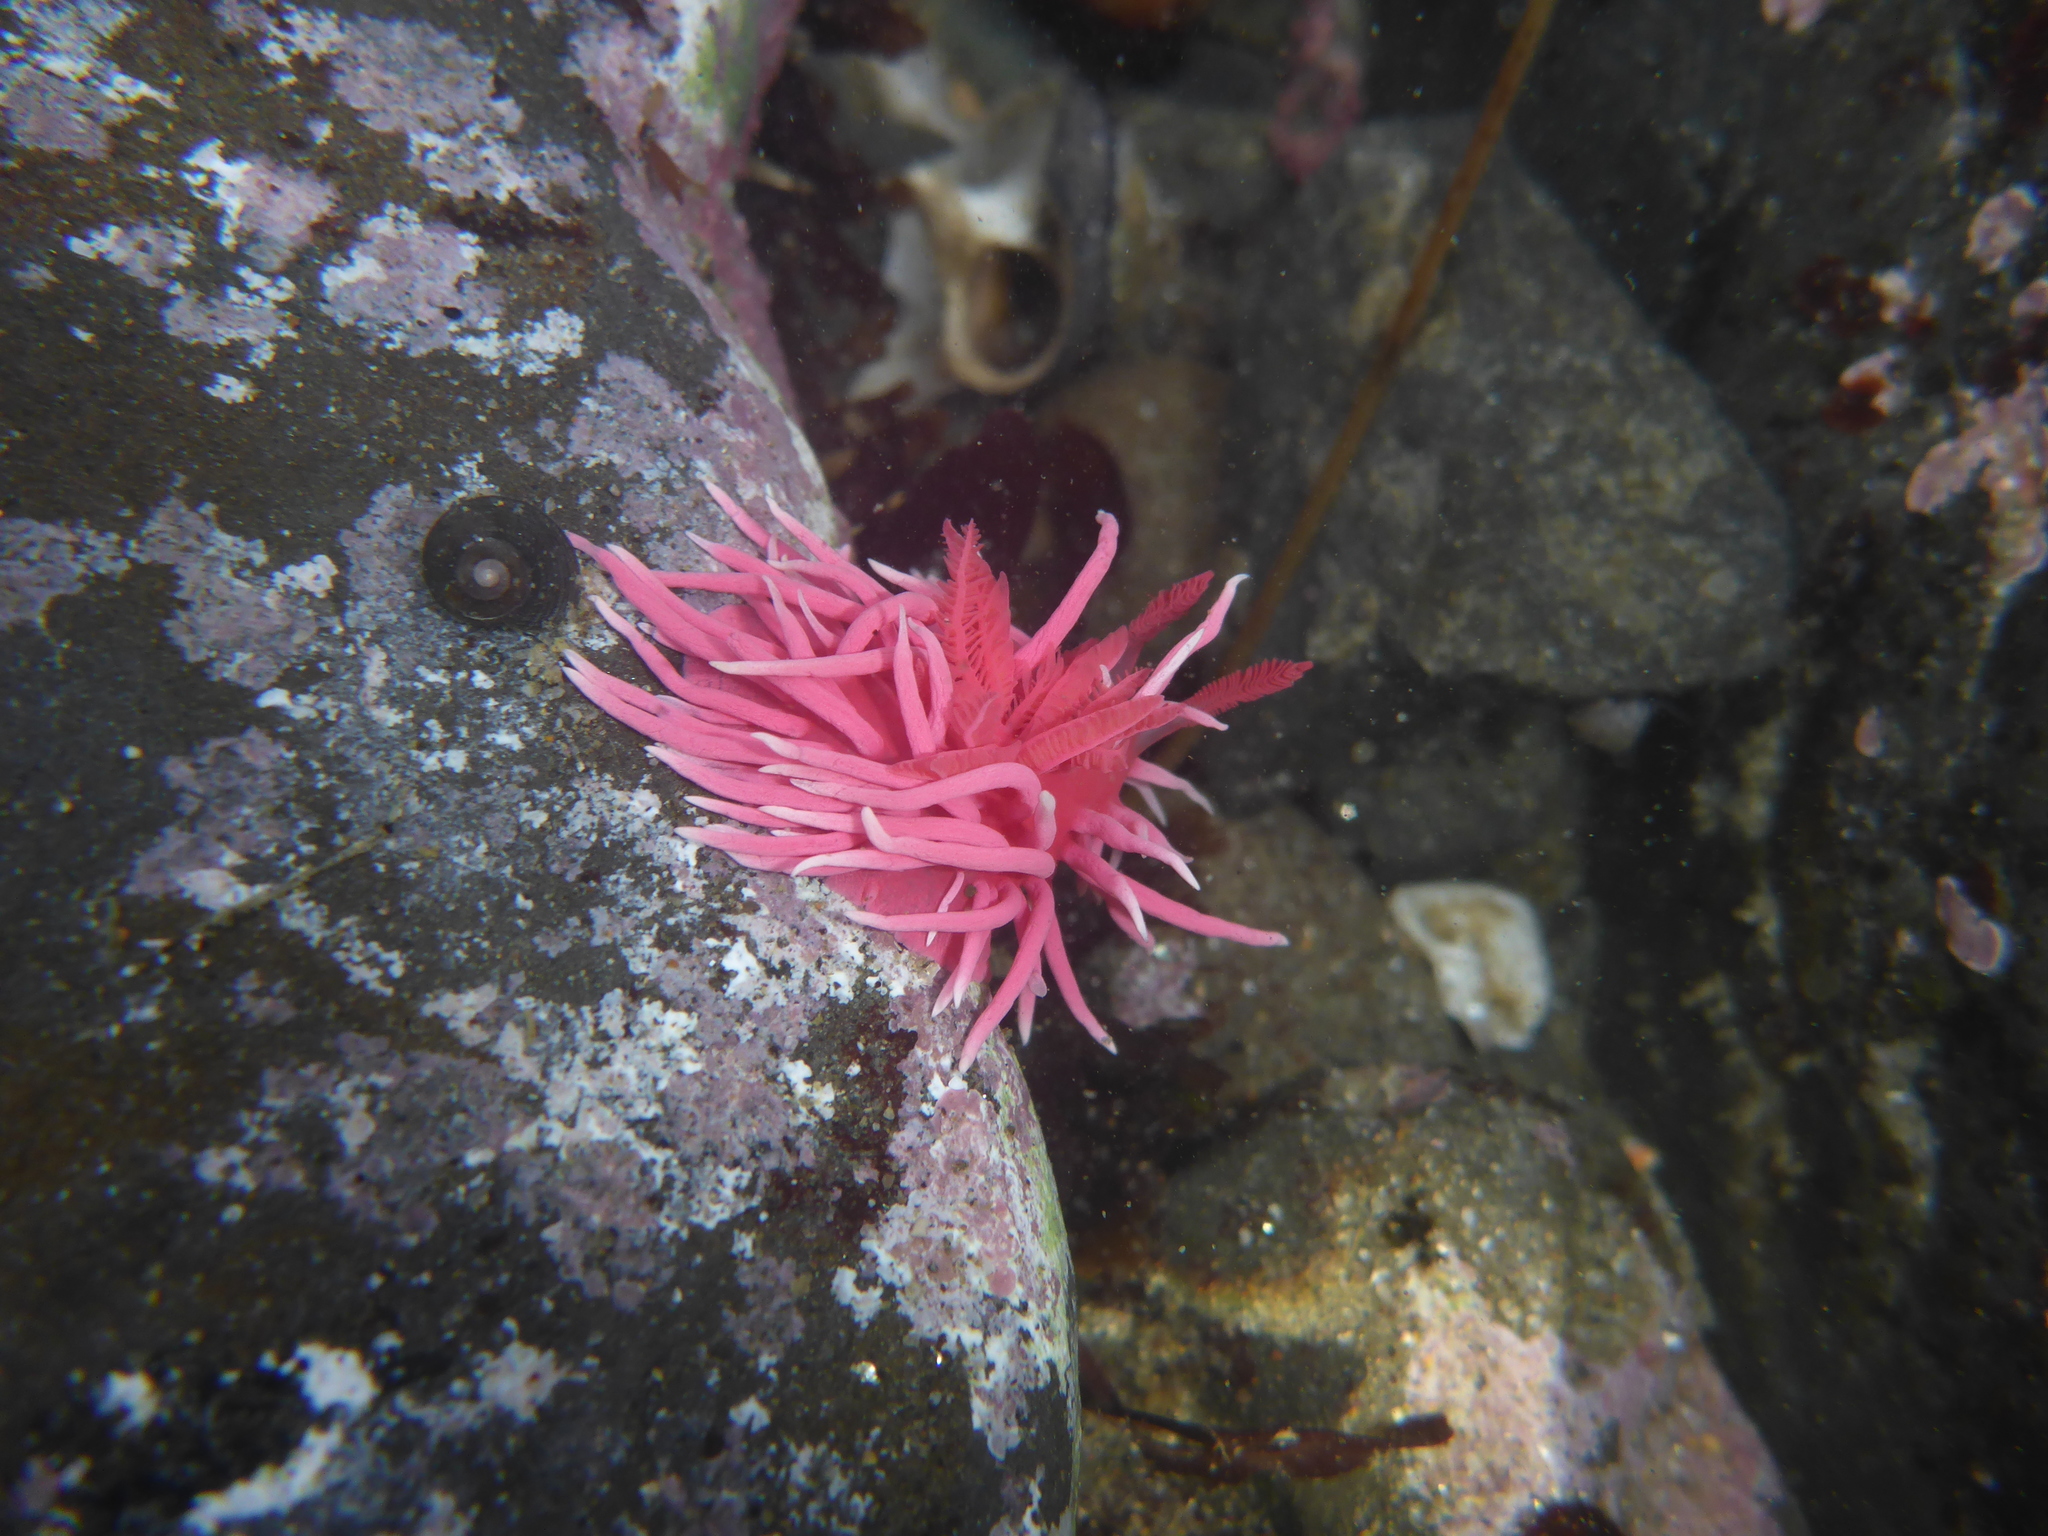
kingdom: Animalia
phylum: Mollusca
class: Gastropoda
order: Nudibranchia
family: Goniodorididae
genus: Okenia
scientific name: Okenia
